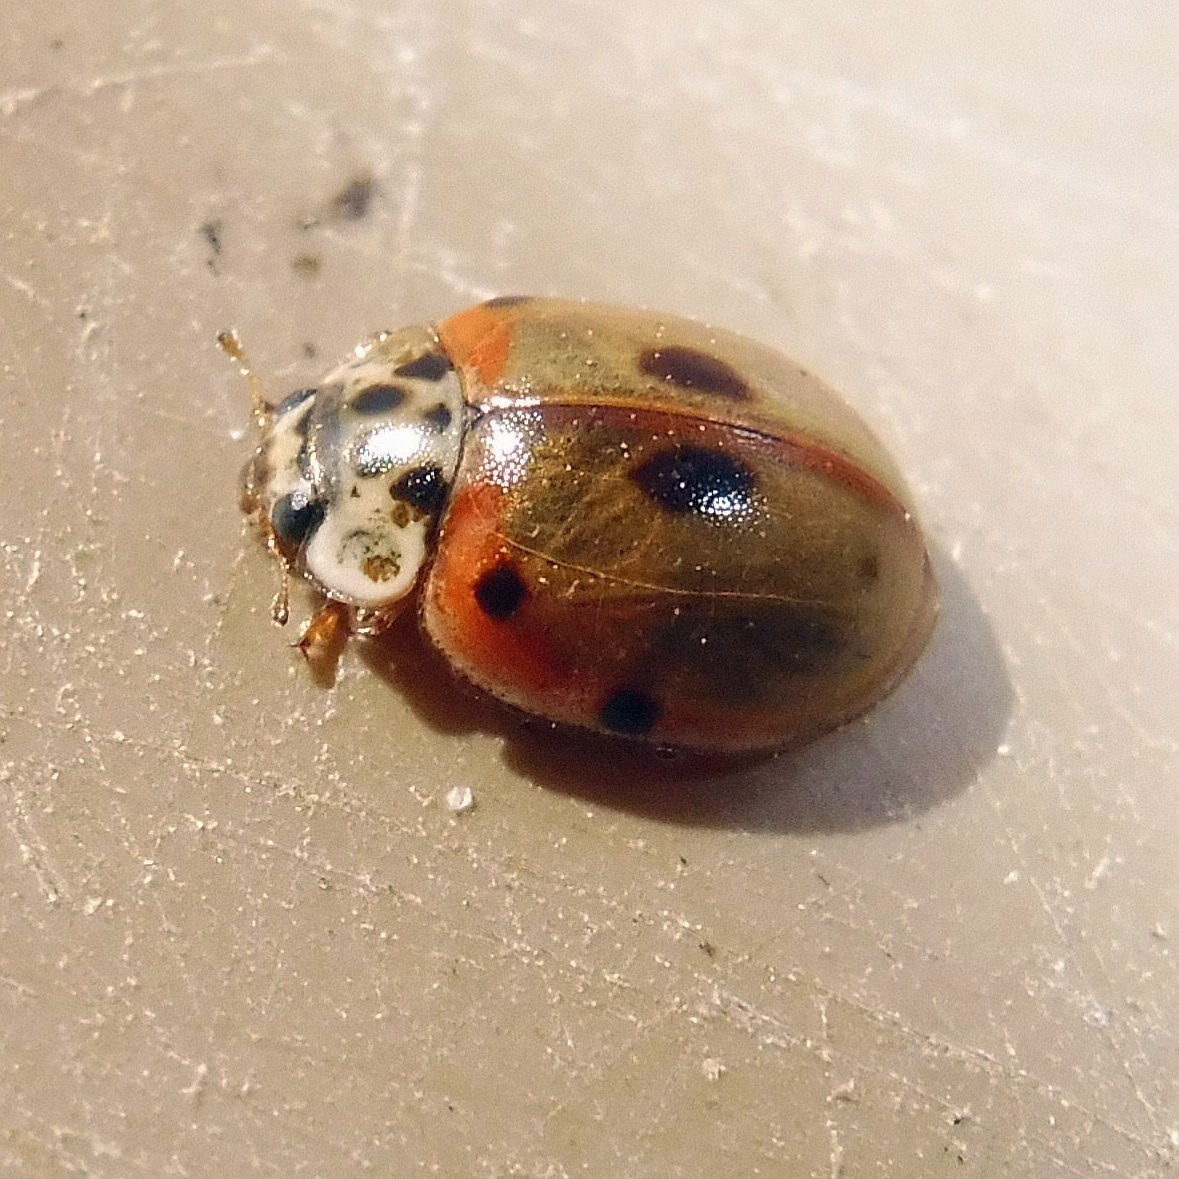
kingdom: Animalia
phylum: Arthropoda
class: Insecta
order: Coleoptera
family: Coccinellidae
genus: Adalia
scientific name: Adalia decempunctata
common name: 10-spot ladybird
